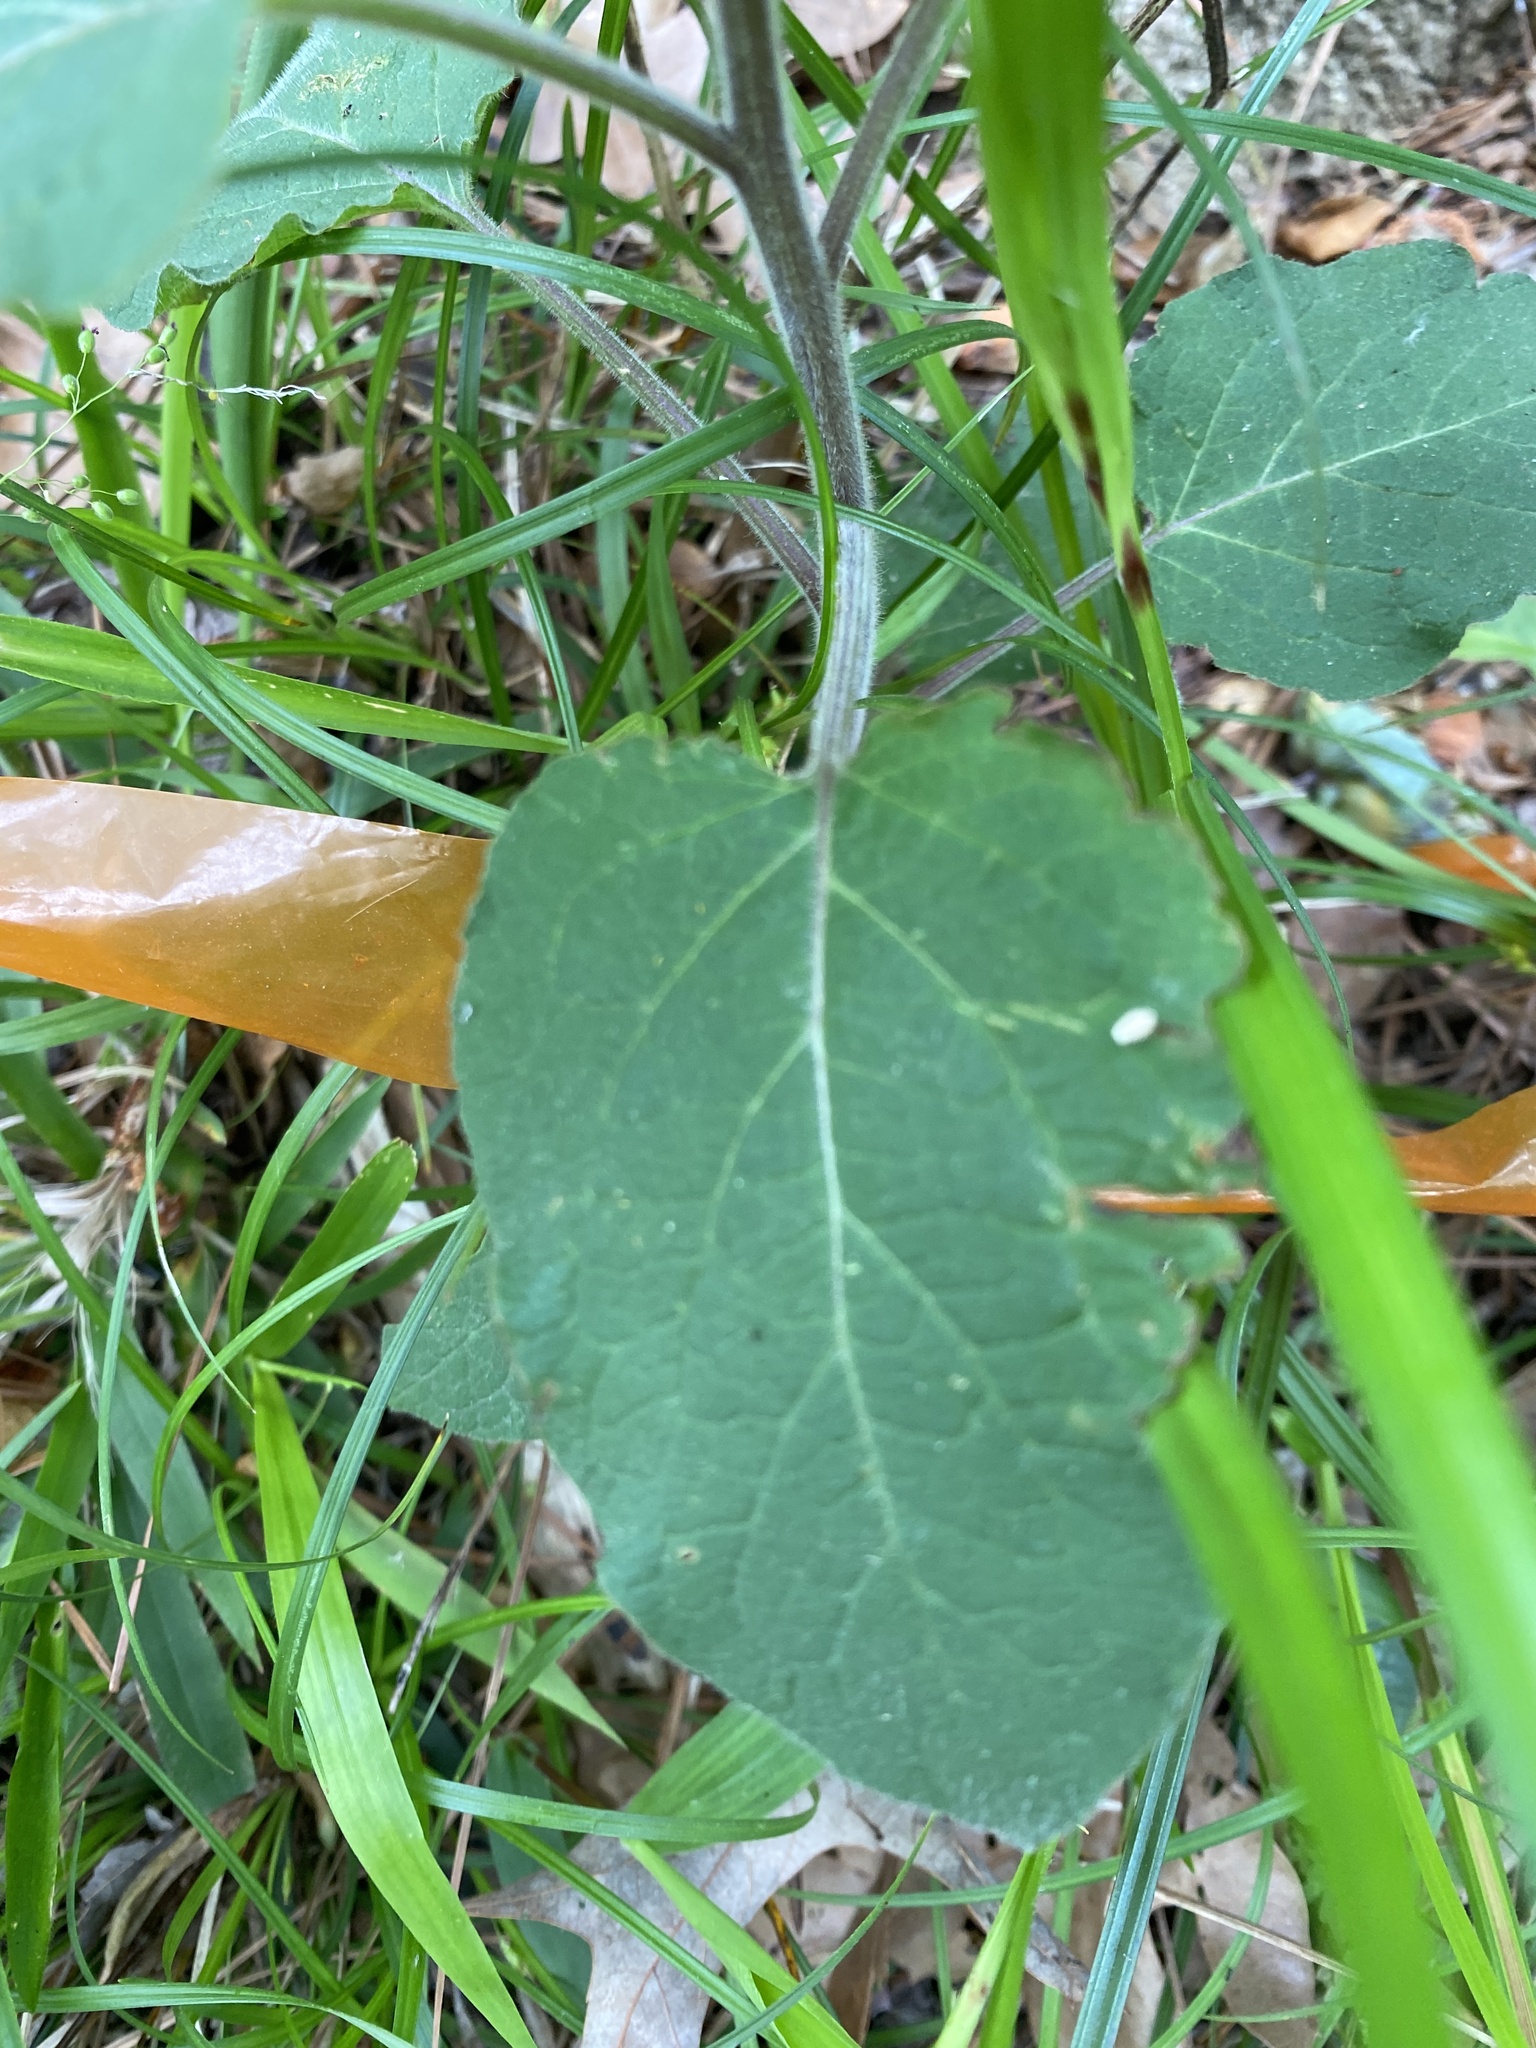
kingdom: Plantae
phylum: Tracheophyta
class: Magnoliopsida
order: Solanales
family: Solanaceae
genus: Calliphysalis
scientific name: Calliphysalis carpenteri
